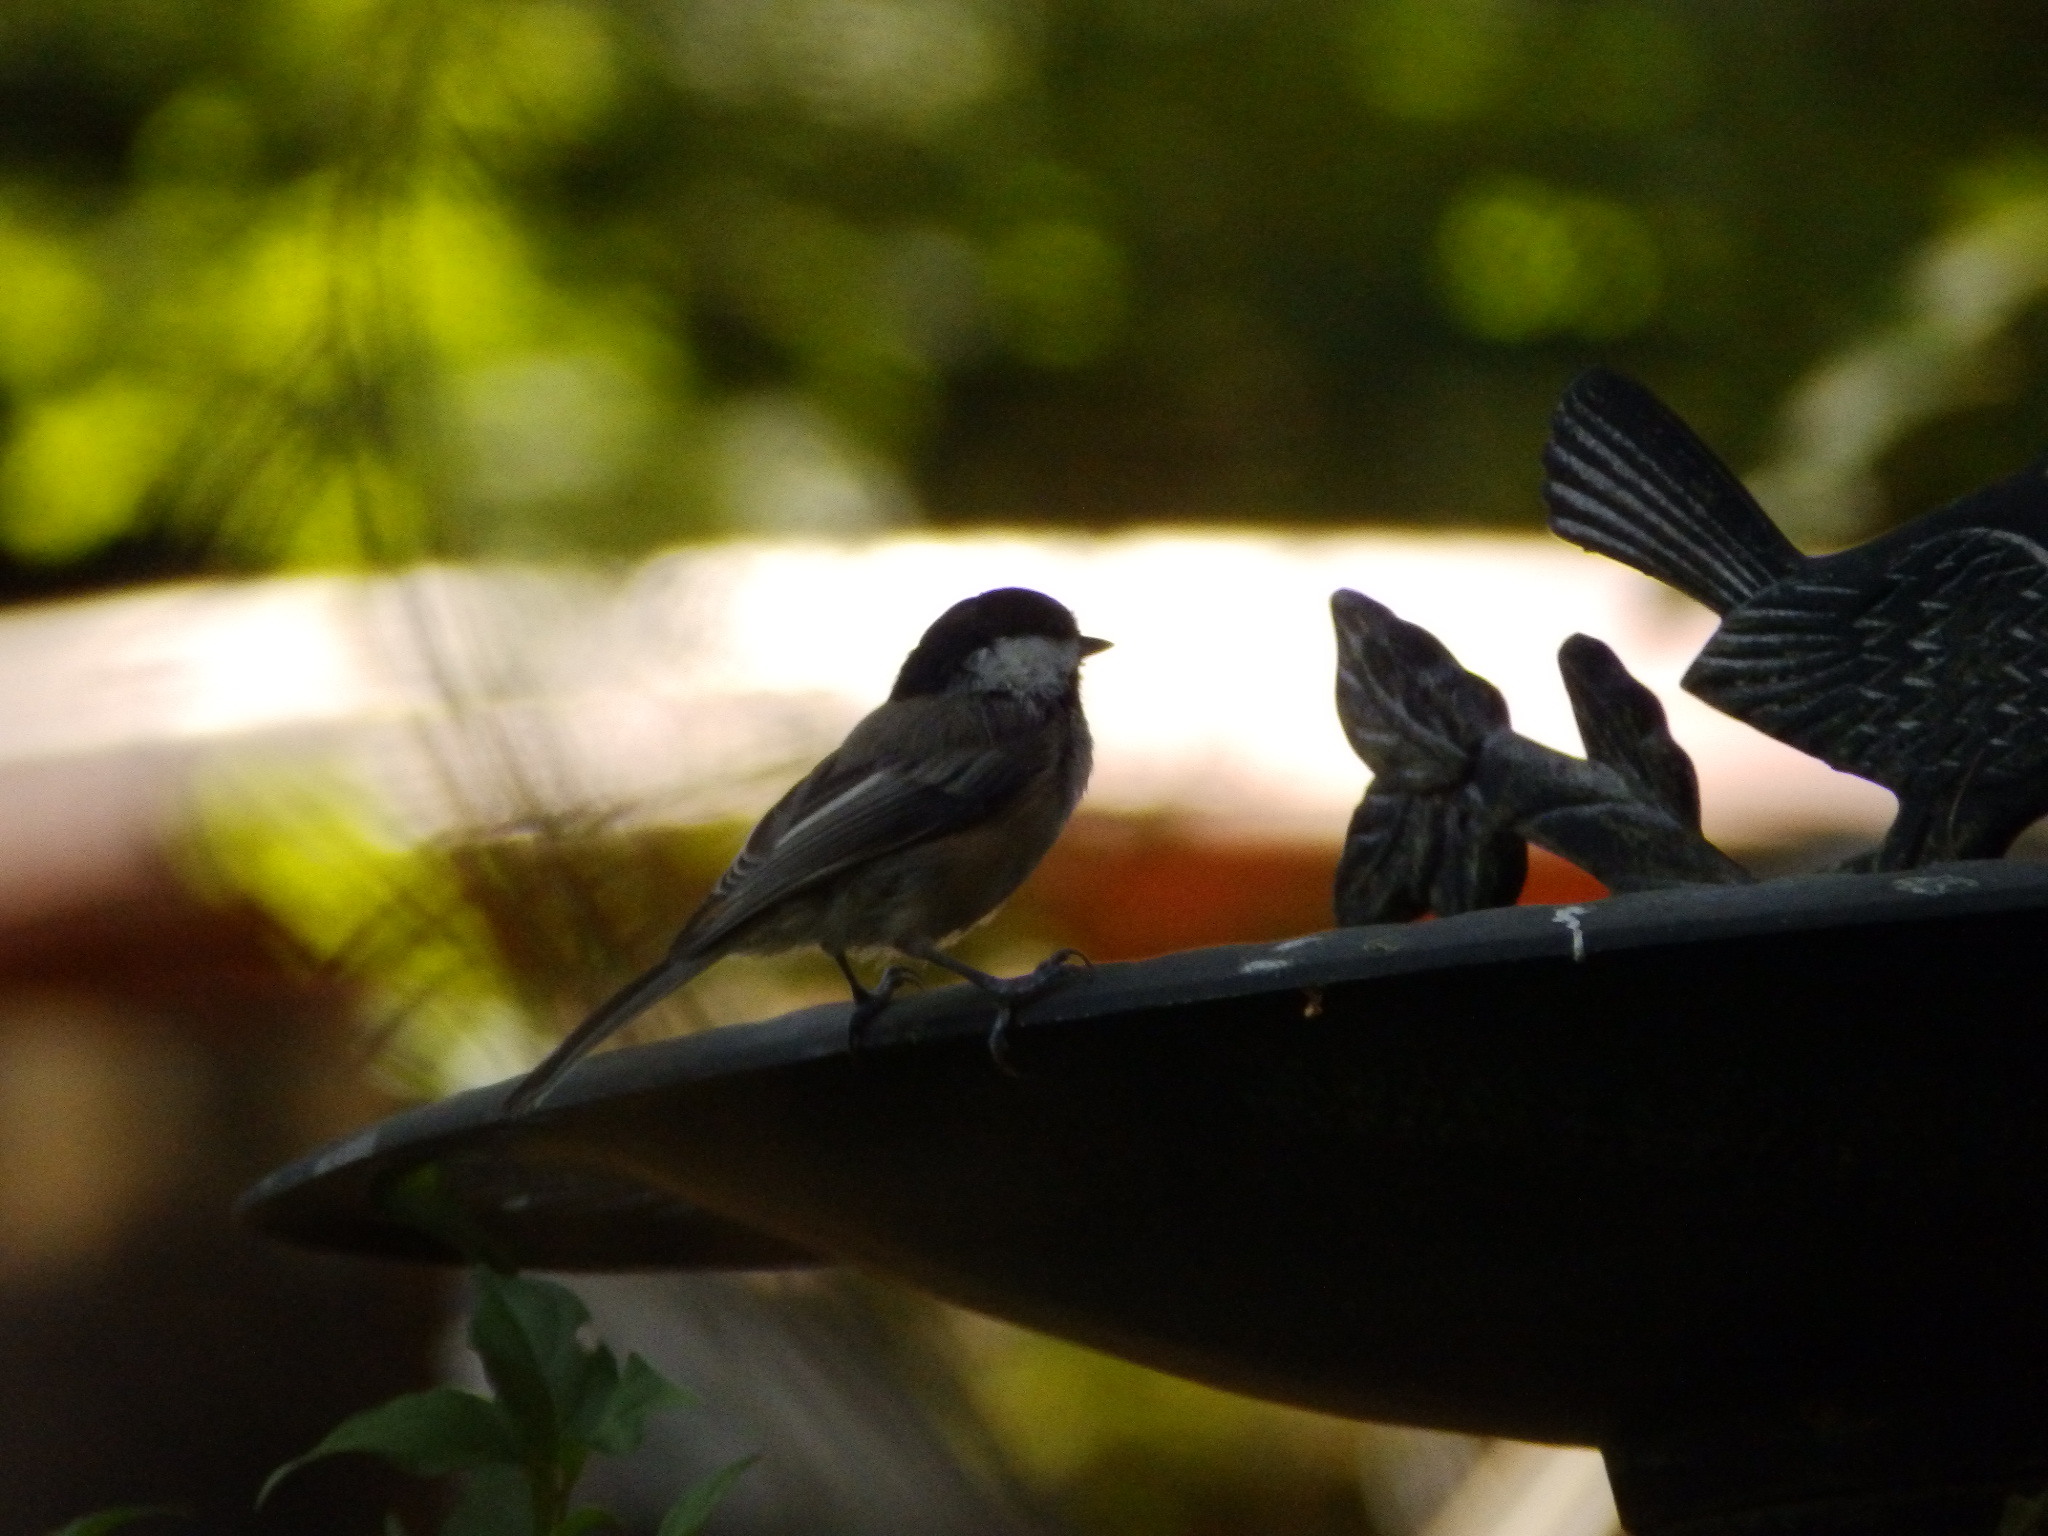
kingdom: Animalia
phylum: Chordata
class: Aves
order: Passeriformes
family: Paridae
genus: Poecile
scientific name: Poecile atricapillus
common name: Black-capped chickadee
